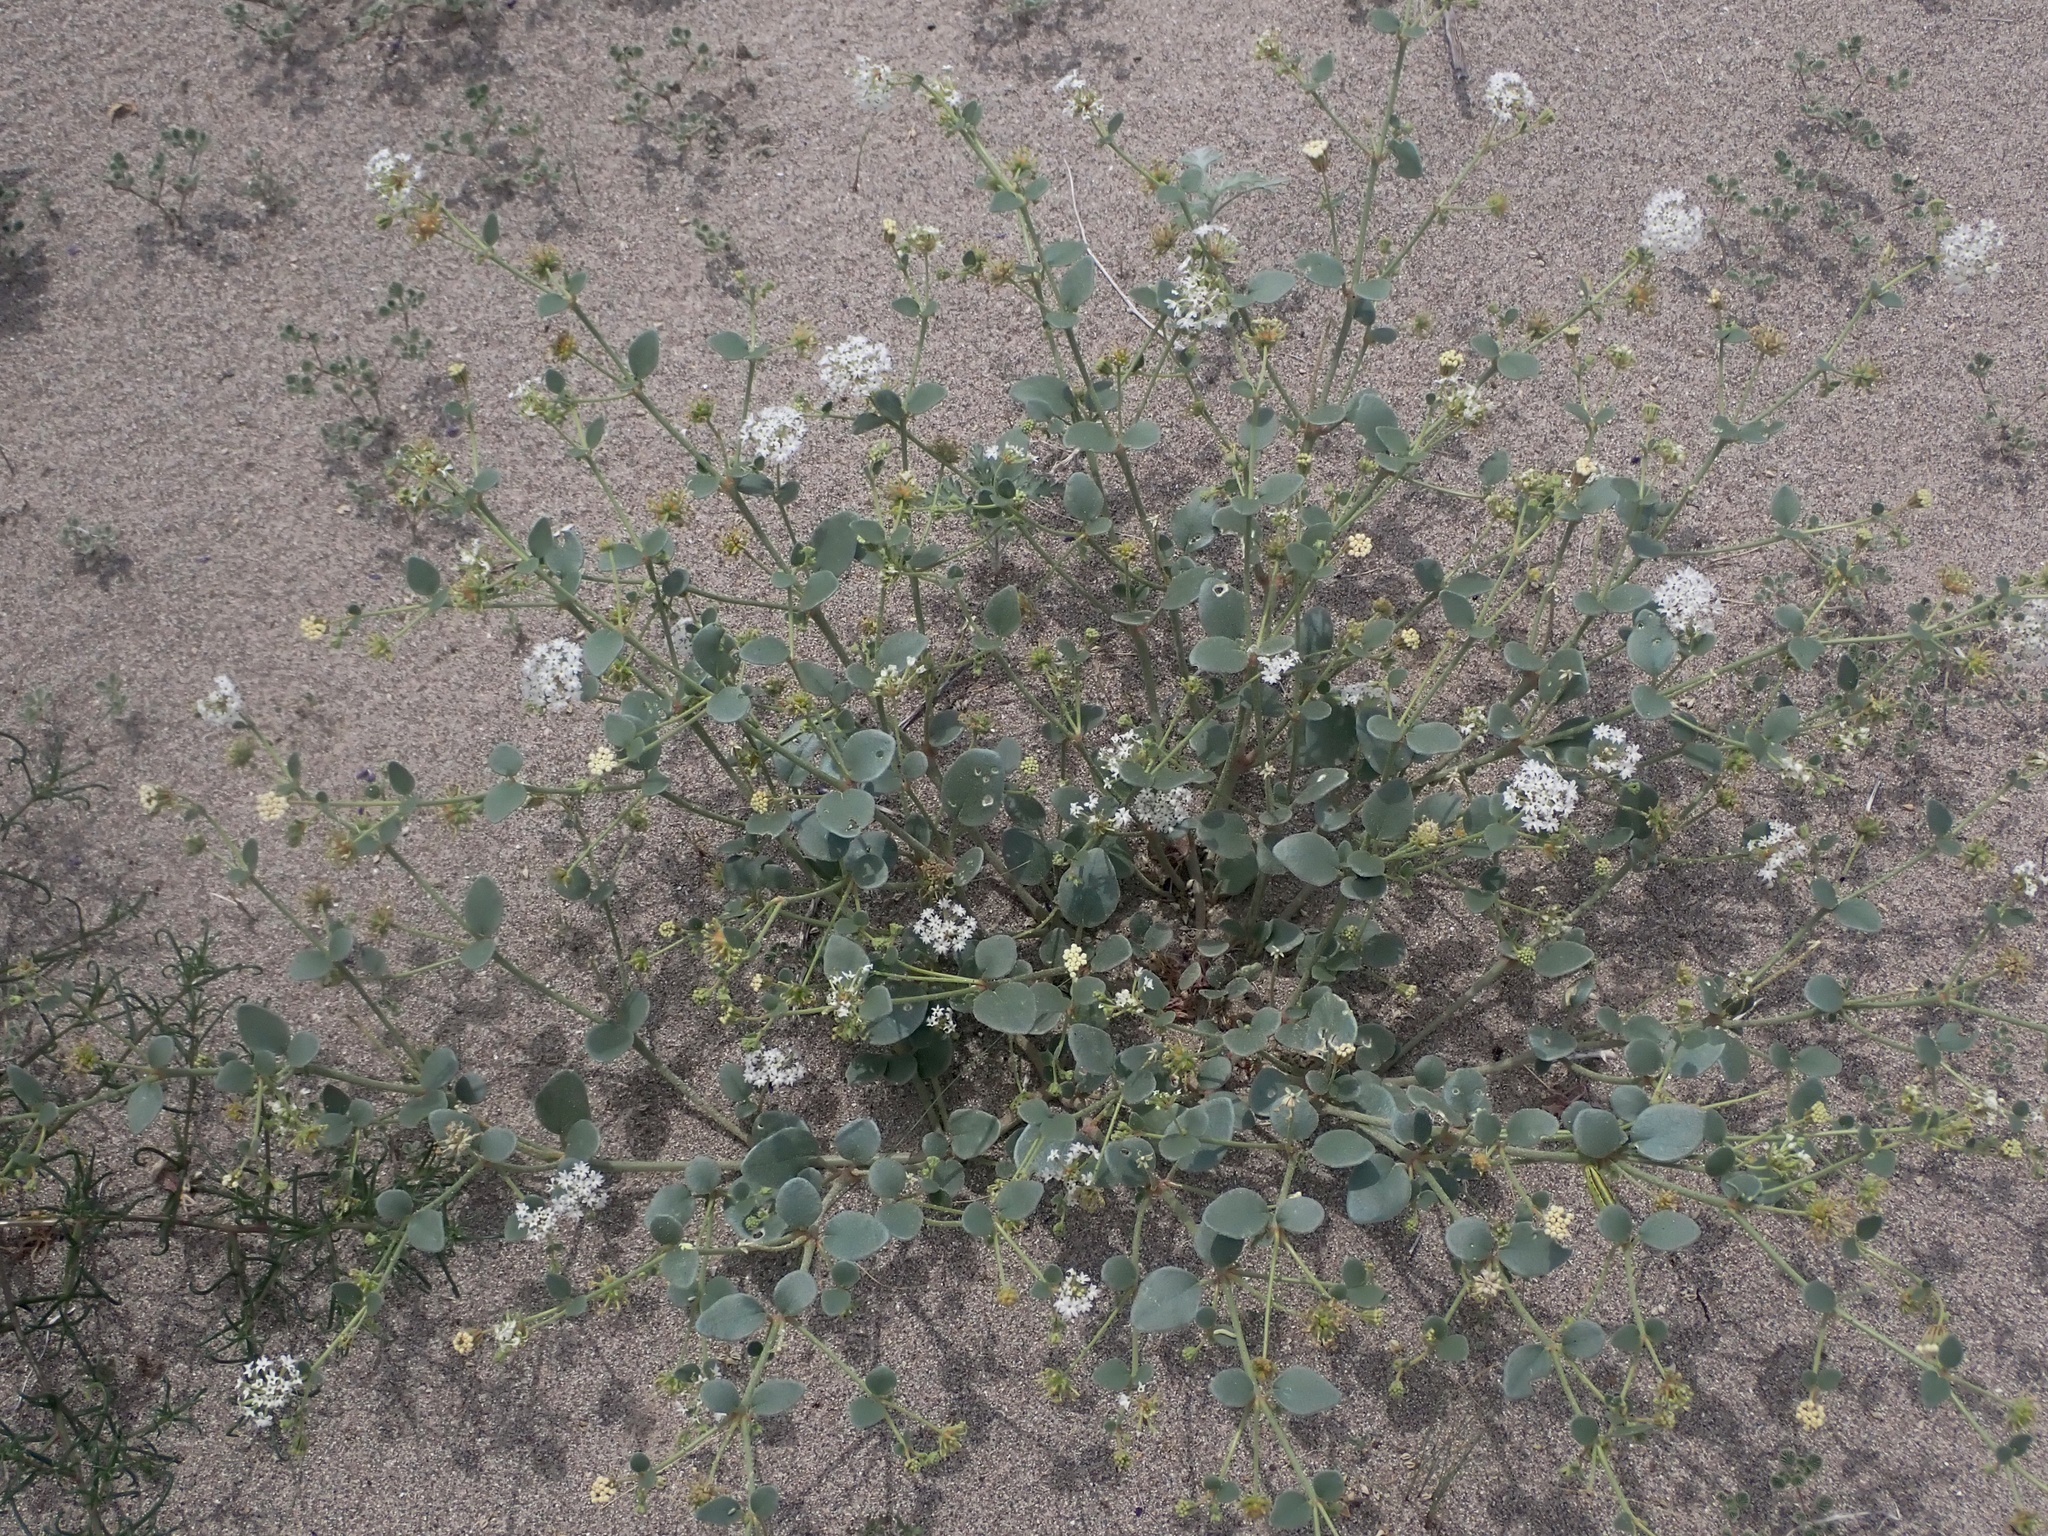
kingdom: Plantae
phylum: Tracheophyta
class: Magnoliopsida
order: Caryophyllales
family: Nyctaginaceae
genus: Abronia
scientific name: Abronia turbinata
